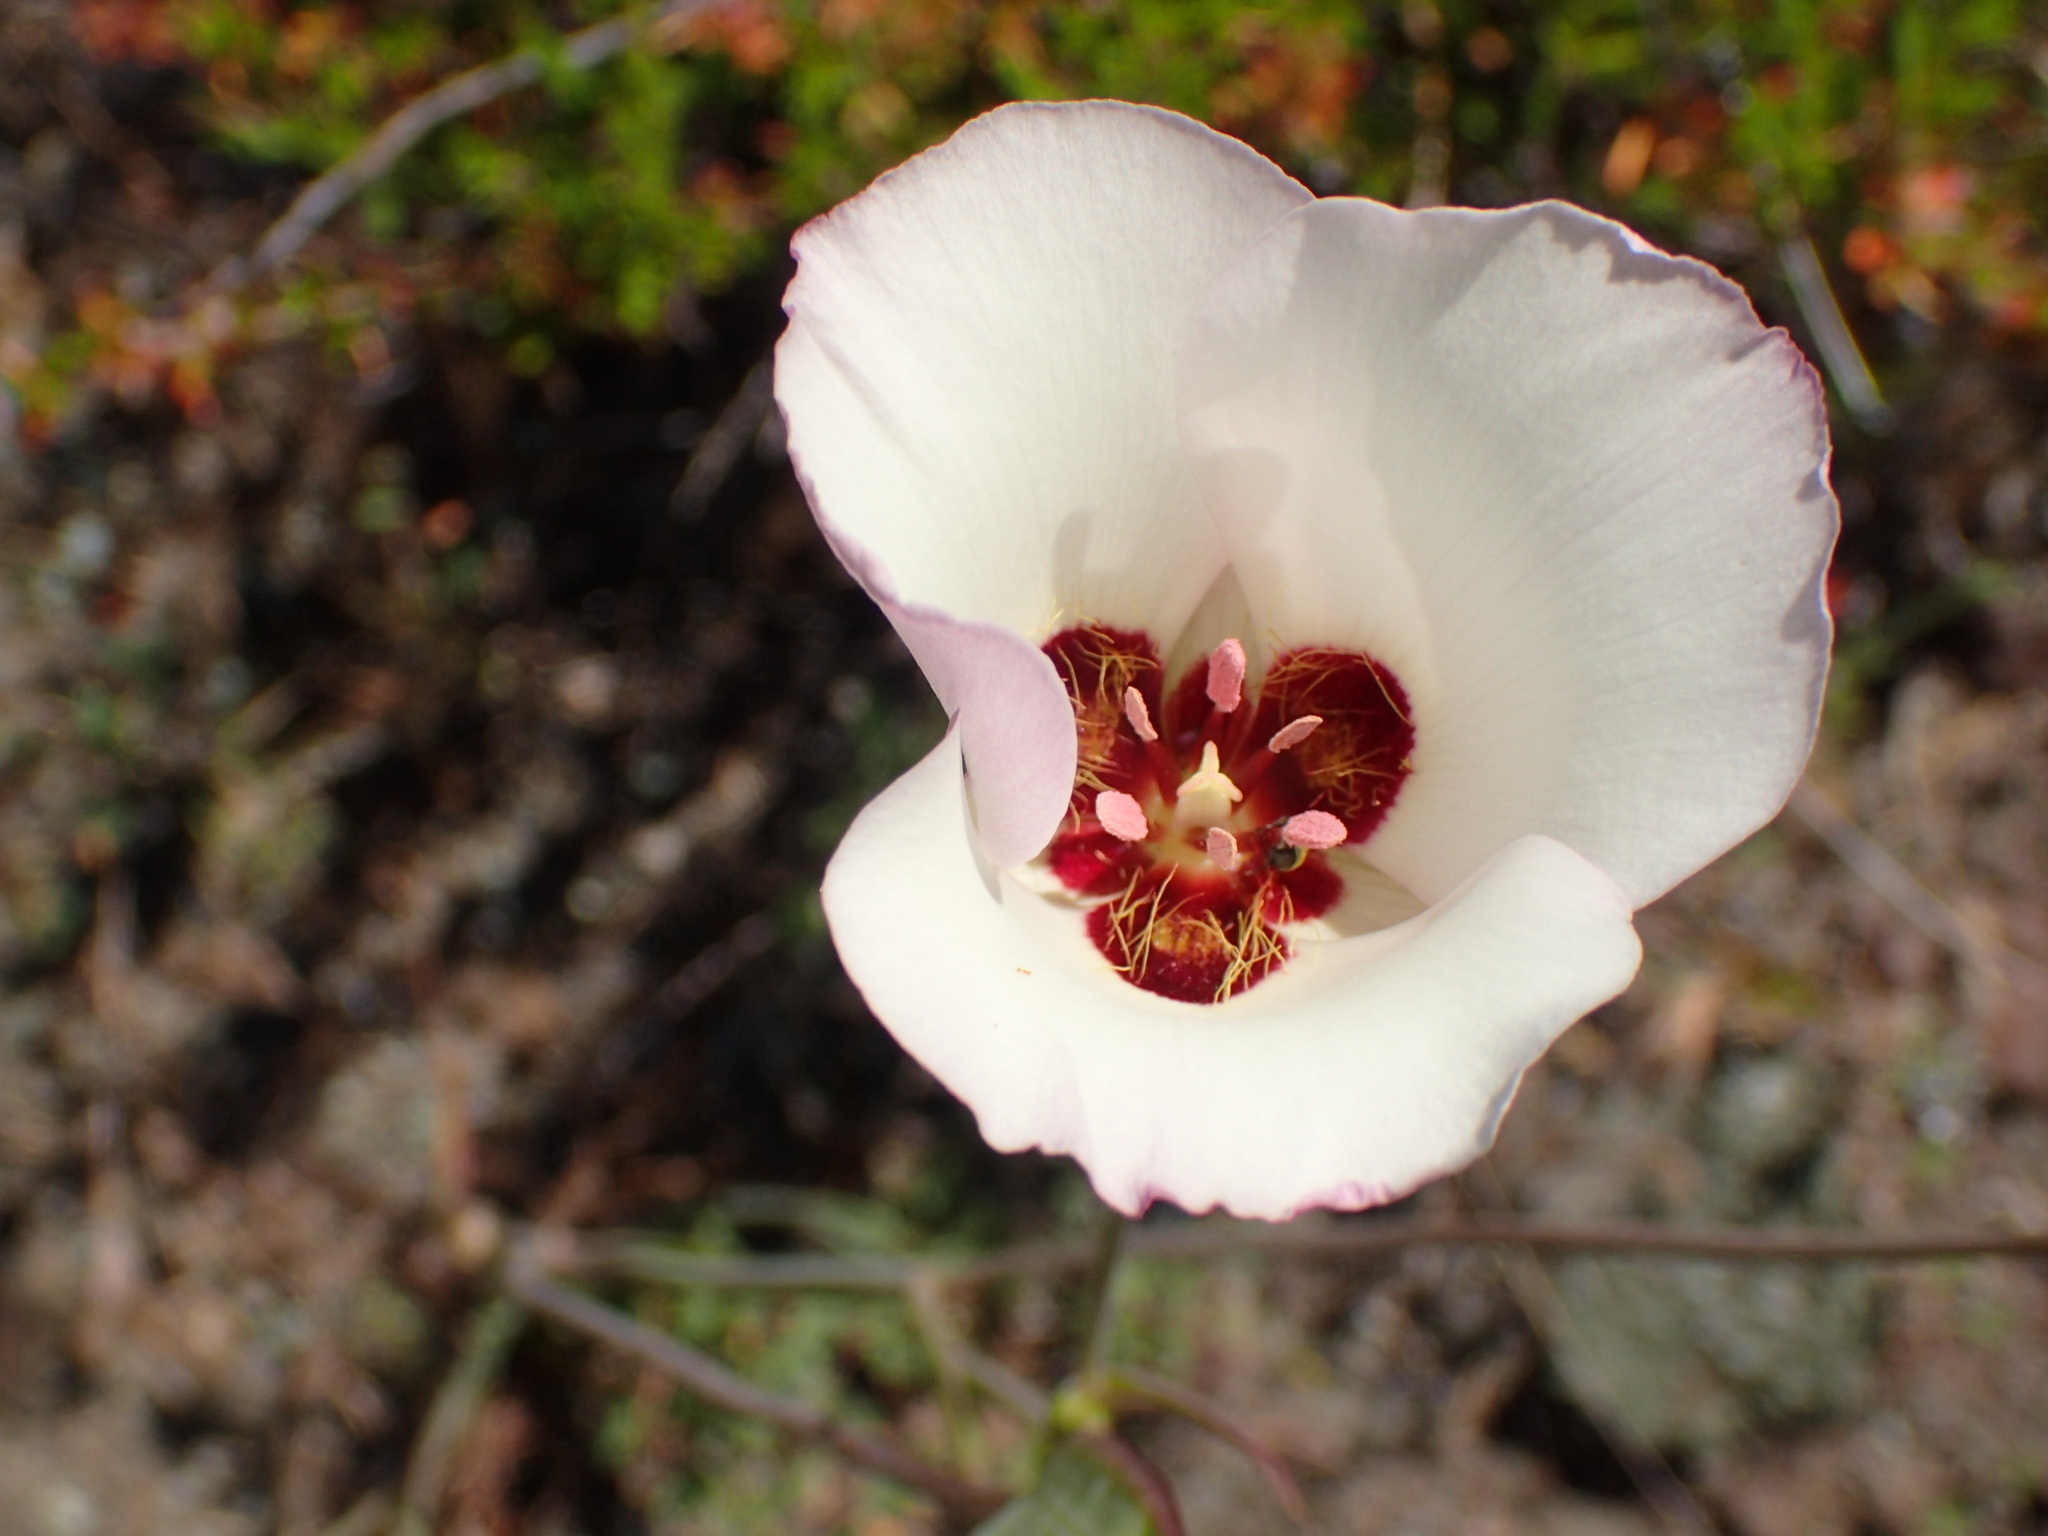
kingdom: Plantae
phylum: Tracheophyta
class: Liliopsida
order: Liliales
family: Liliaceae
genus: Calochortus
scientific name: Calochortus catalinae
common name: Catalina mariposa-lily
